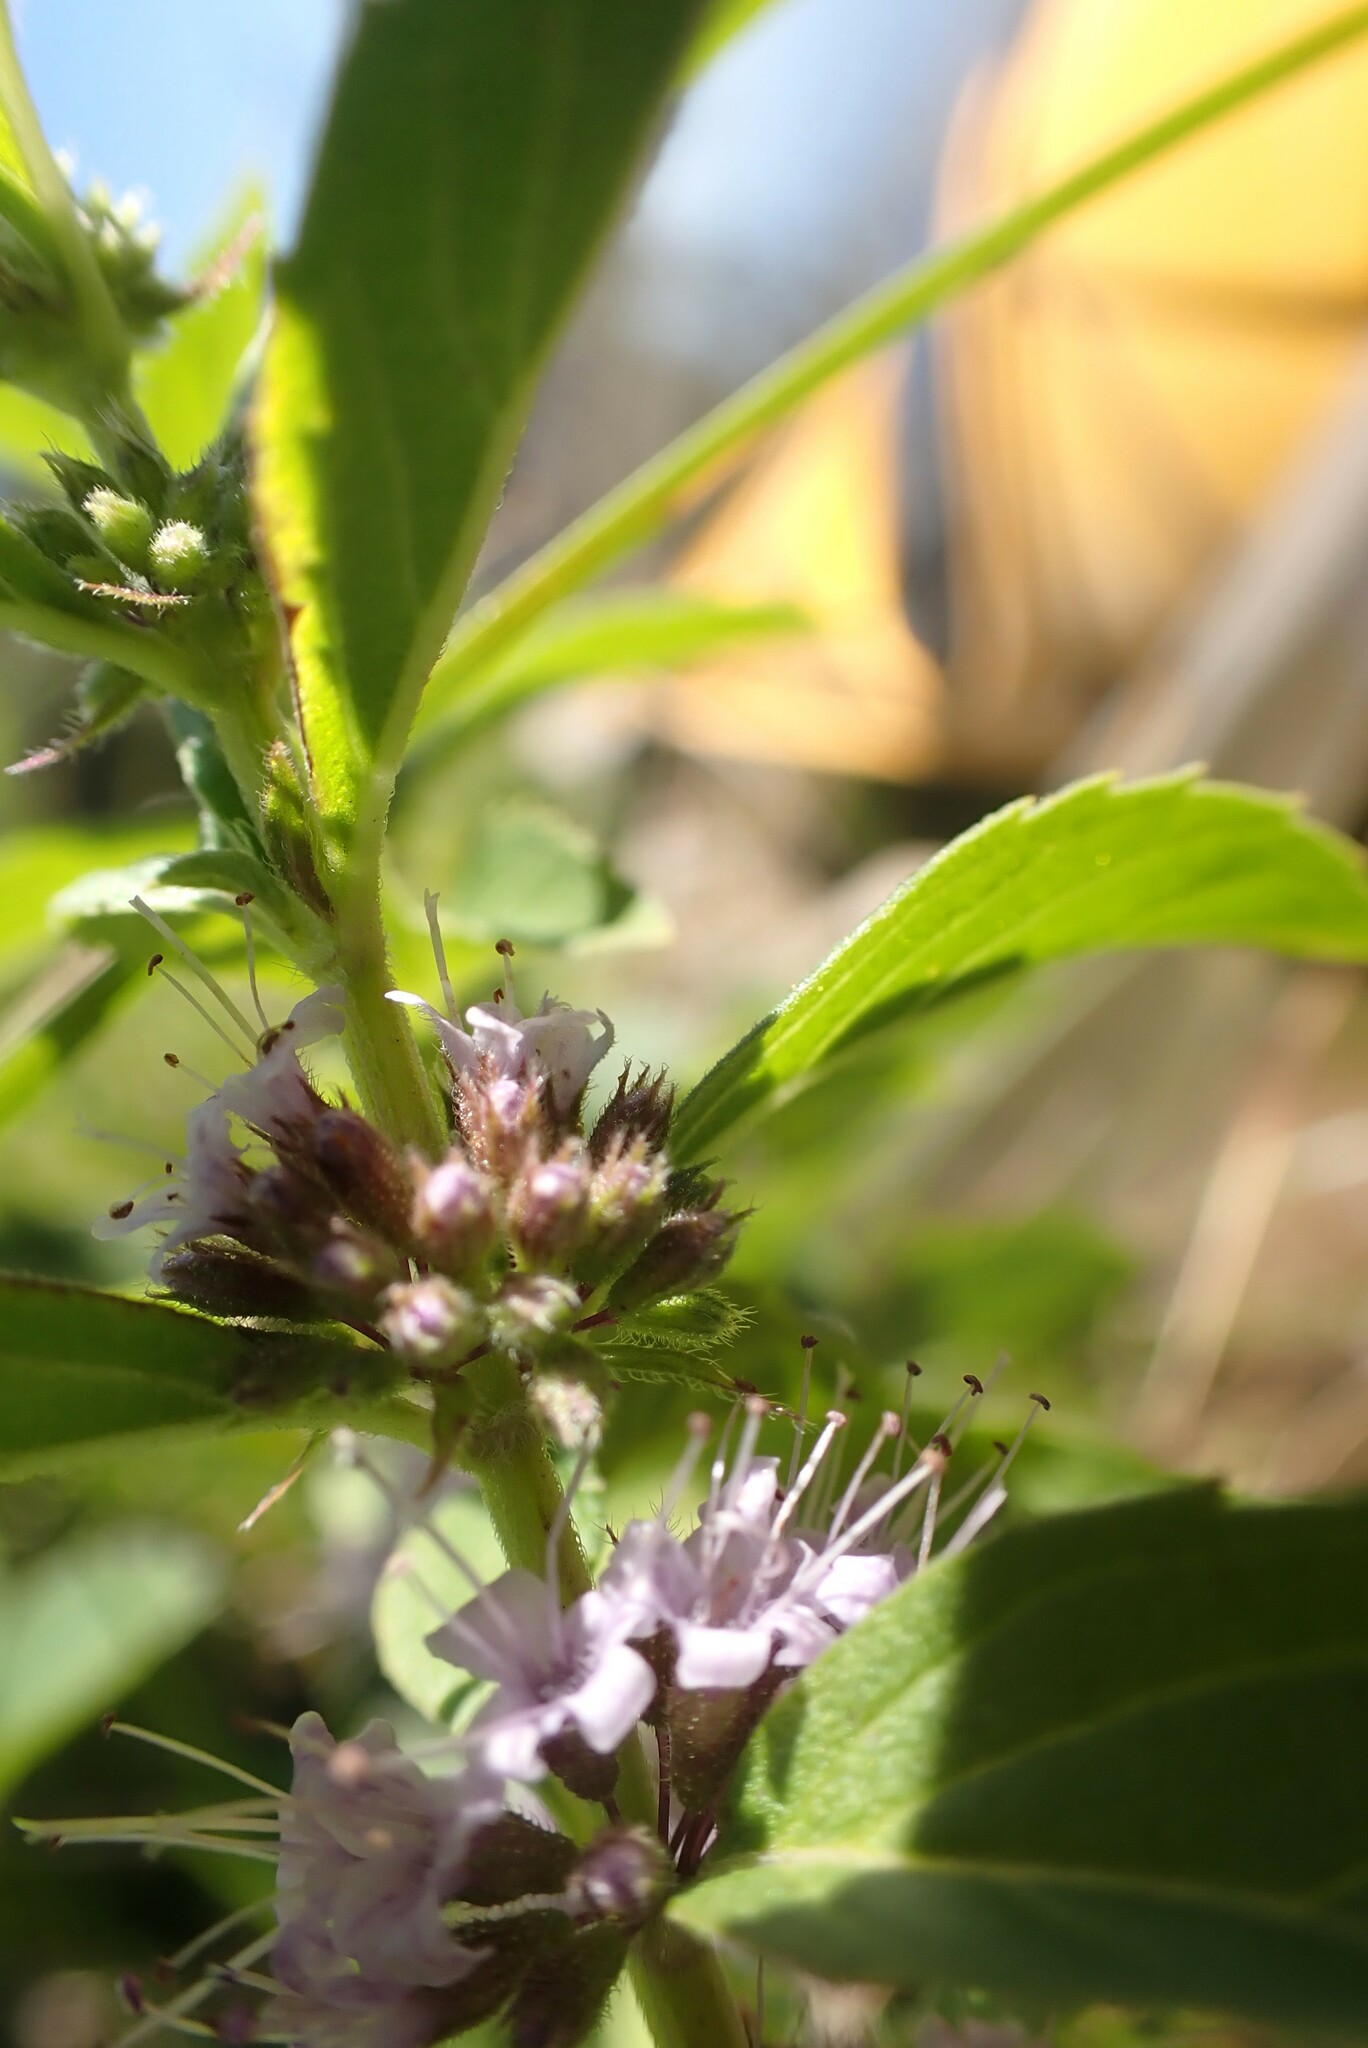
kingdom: Plantae
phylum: Tracheophyta
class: Magnoliopsida
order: Lamiales
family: Lamiaceae
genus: Mentha
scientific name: Mentha canadensis
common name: American corn mint
